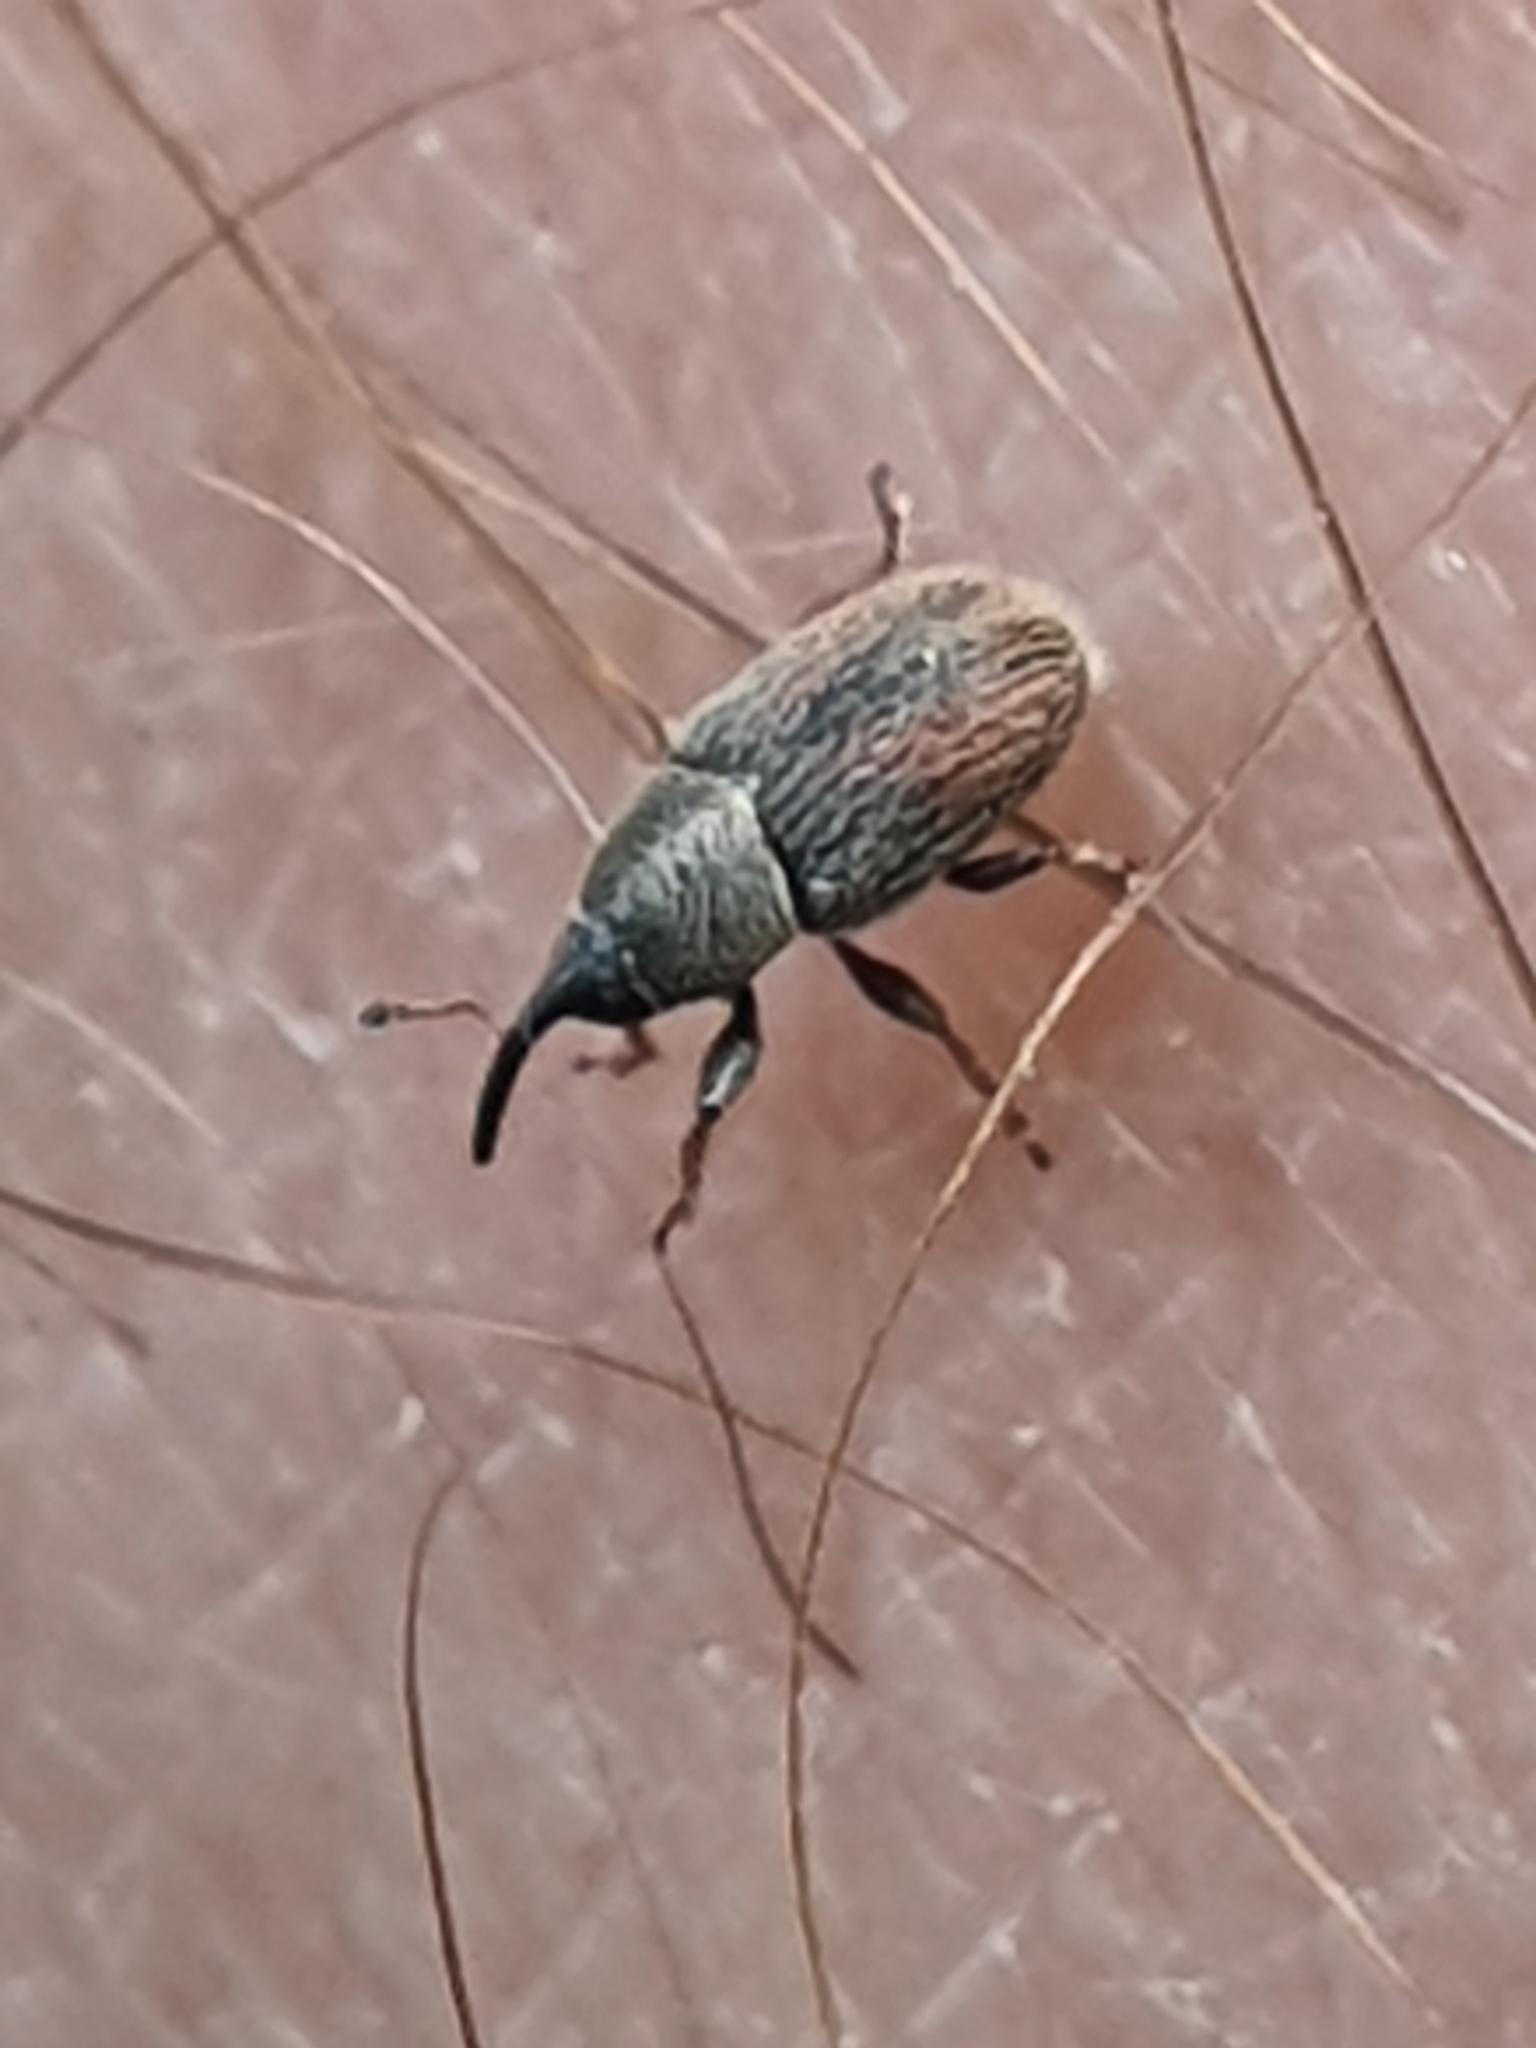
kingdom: Animalia
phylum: Arthropoda
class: Insecta
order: Coleoptera
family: Curculionidae
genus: Mecinus
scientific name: Mecinus pascuorum
